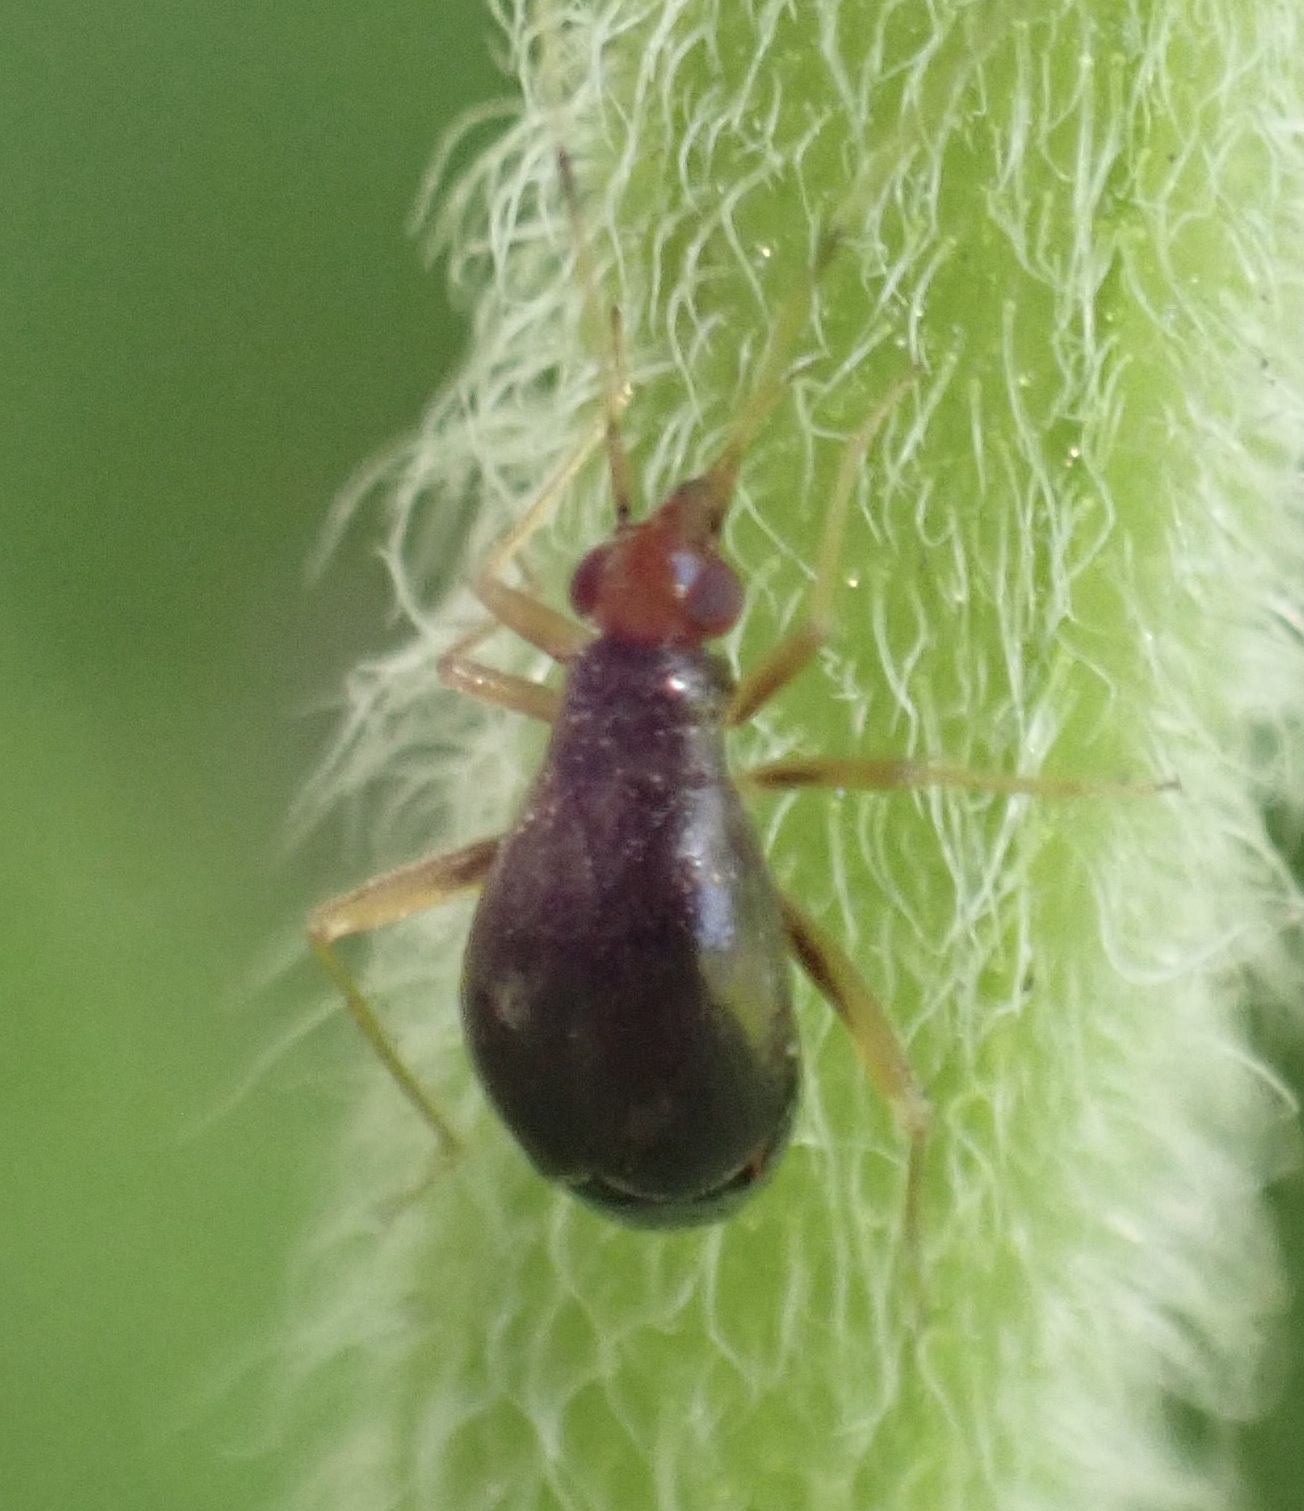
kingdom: Animalia
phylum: Arthropoda
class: Insecta
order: Hemiptera
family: Miridae
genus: Orthonotus
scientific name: Orthonotus rufifrons
